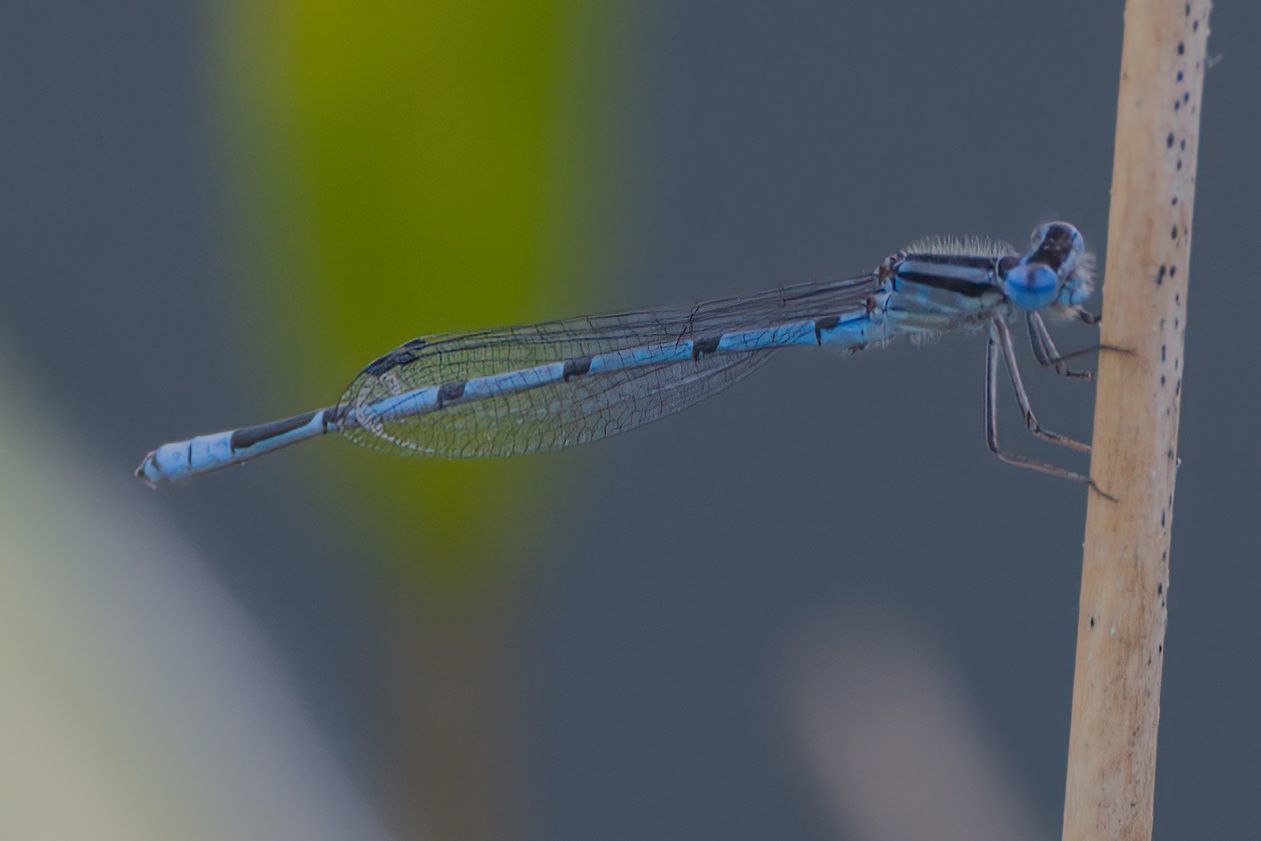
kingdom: Animalia
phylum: Arthropoda
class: Insecta
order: Odonata
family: Coenagrionidae
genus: Enallagma
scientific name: Enallagma doubledayi
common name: Atlantic bluet
